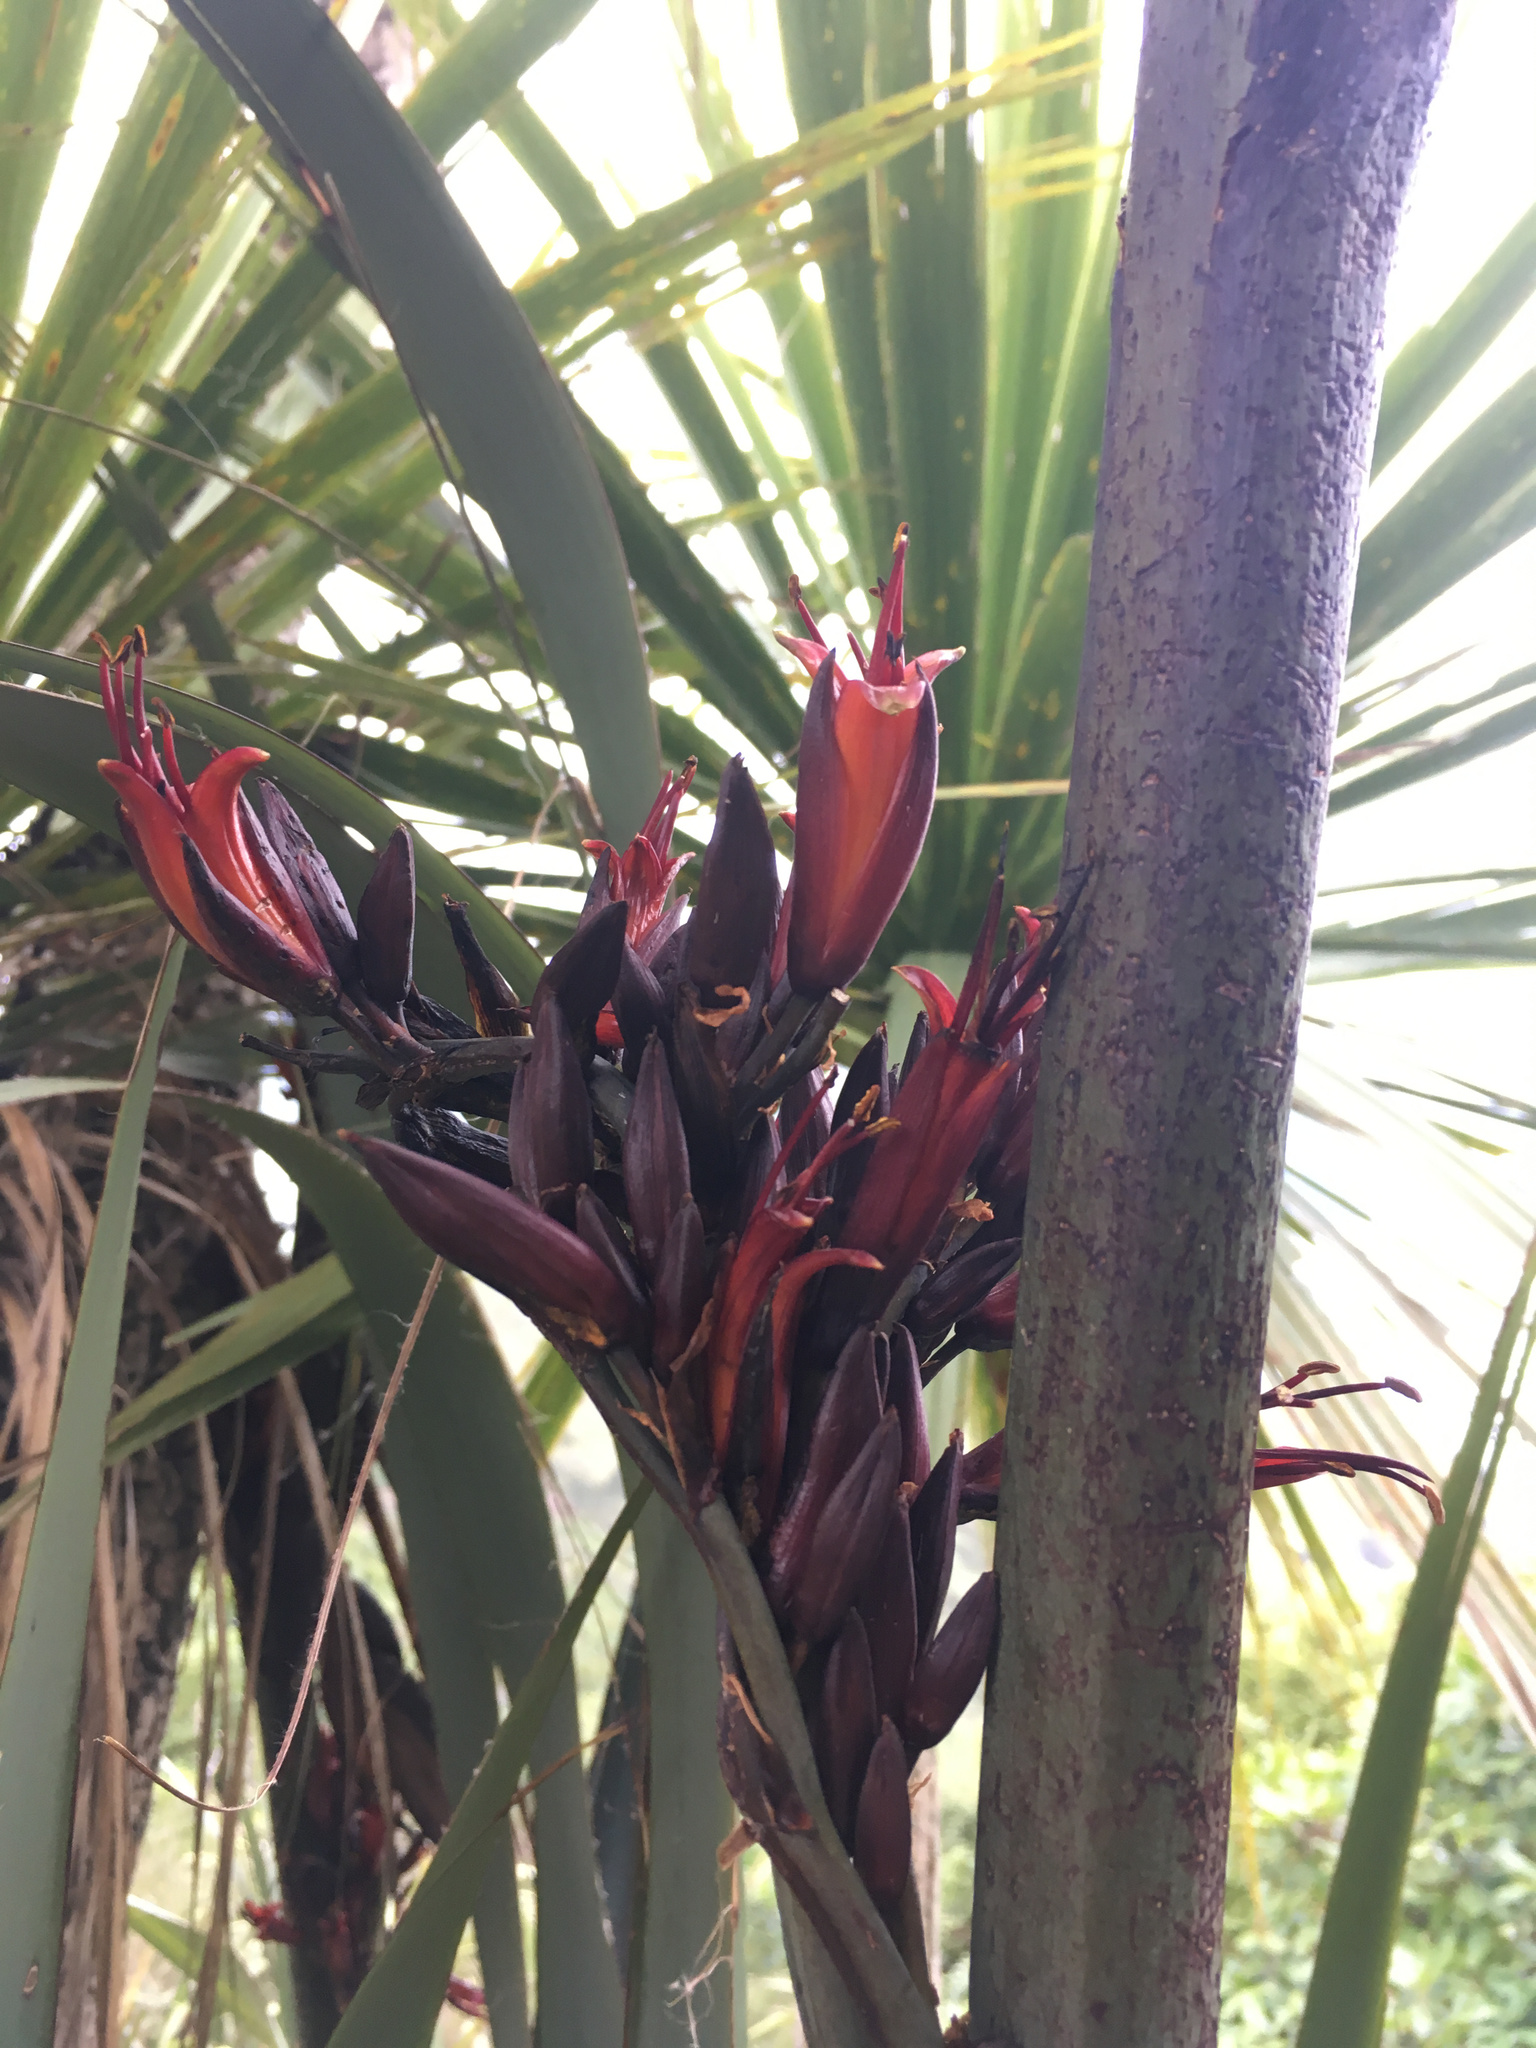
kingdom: Plantae
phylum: Tracheophyta
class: Liliopsida
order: Asparagales
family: Asphodelaceae
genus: Phormium
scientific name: Phormium tenax
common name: New zealand flax
